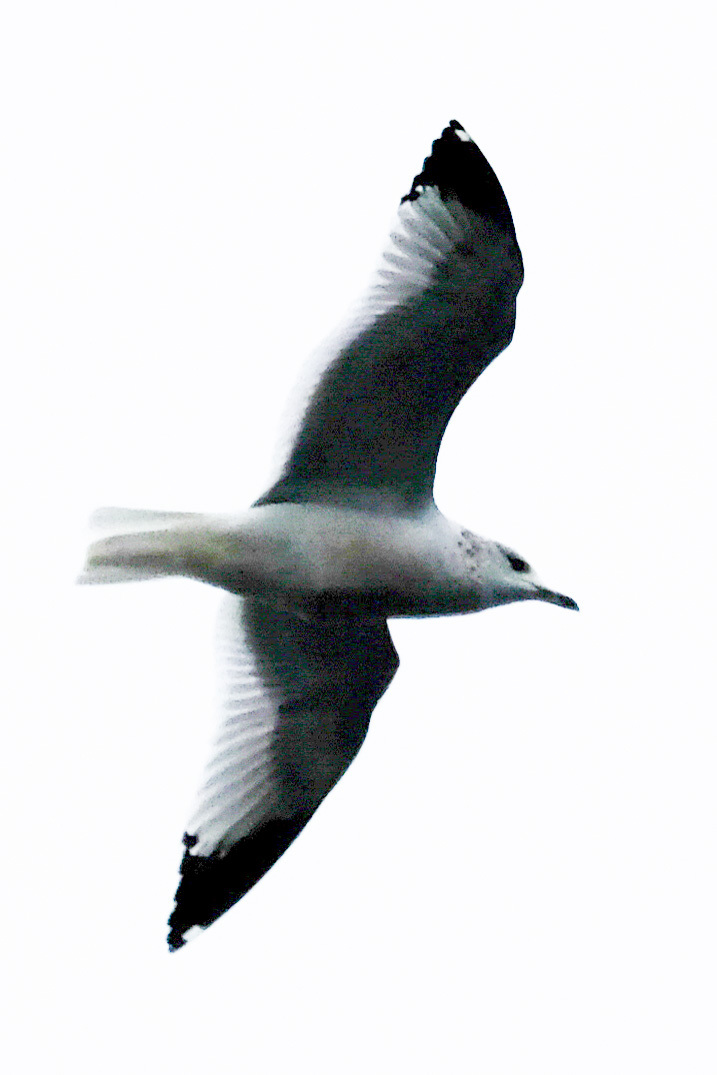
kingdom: Animalia
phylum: Chordata
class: Aves
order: Charadriiformes
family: Laridae
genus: Larus
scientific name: Larus delawarensis
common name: Ring-billed gull
